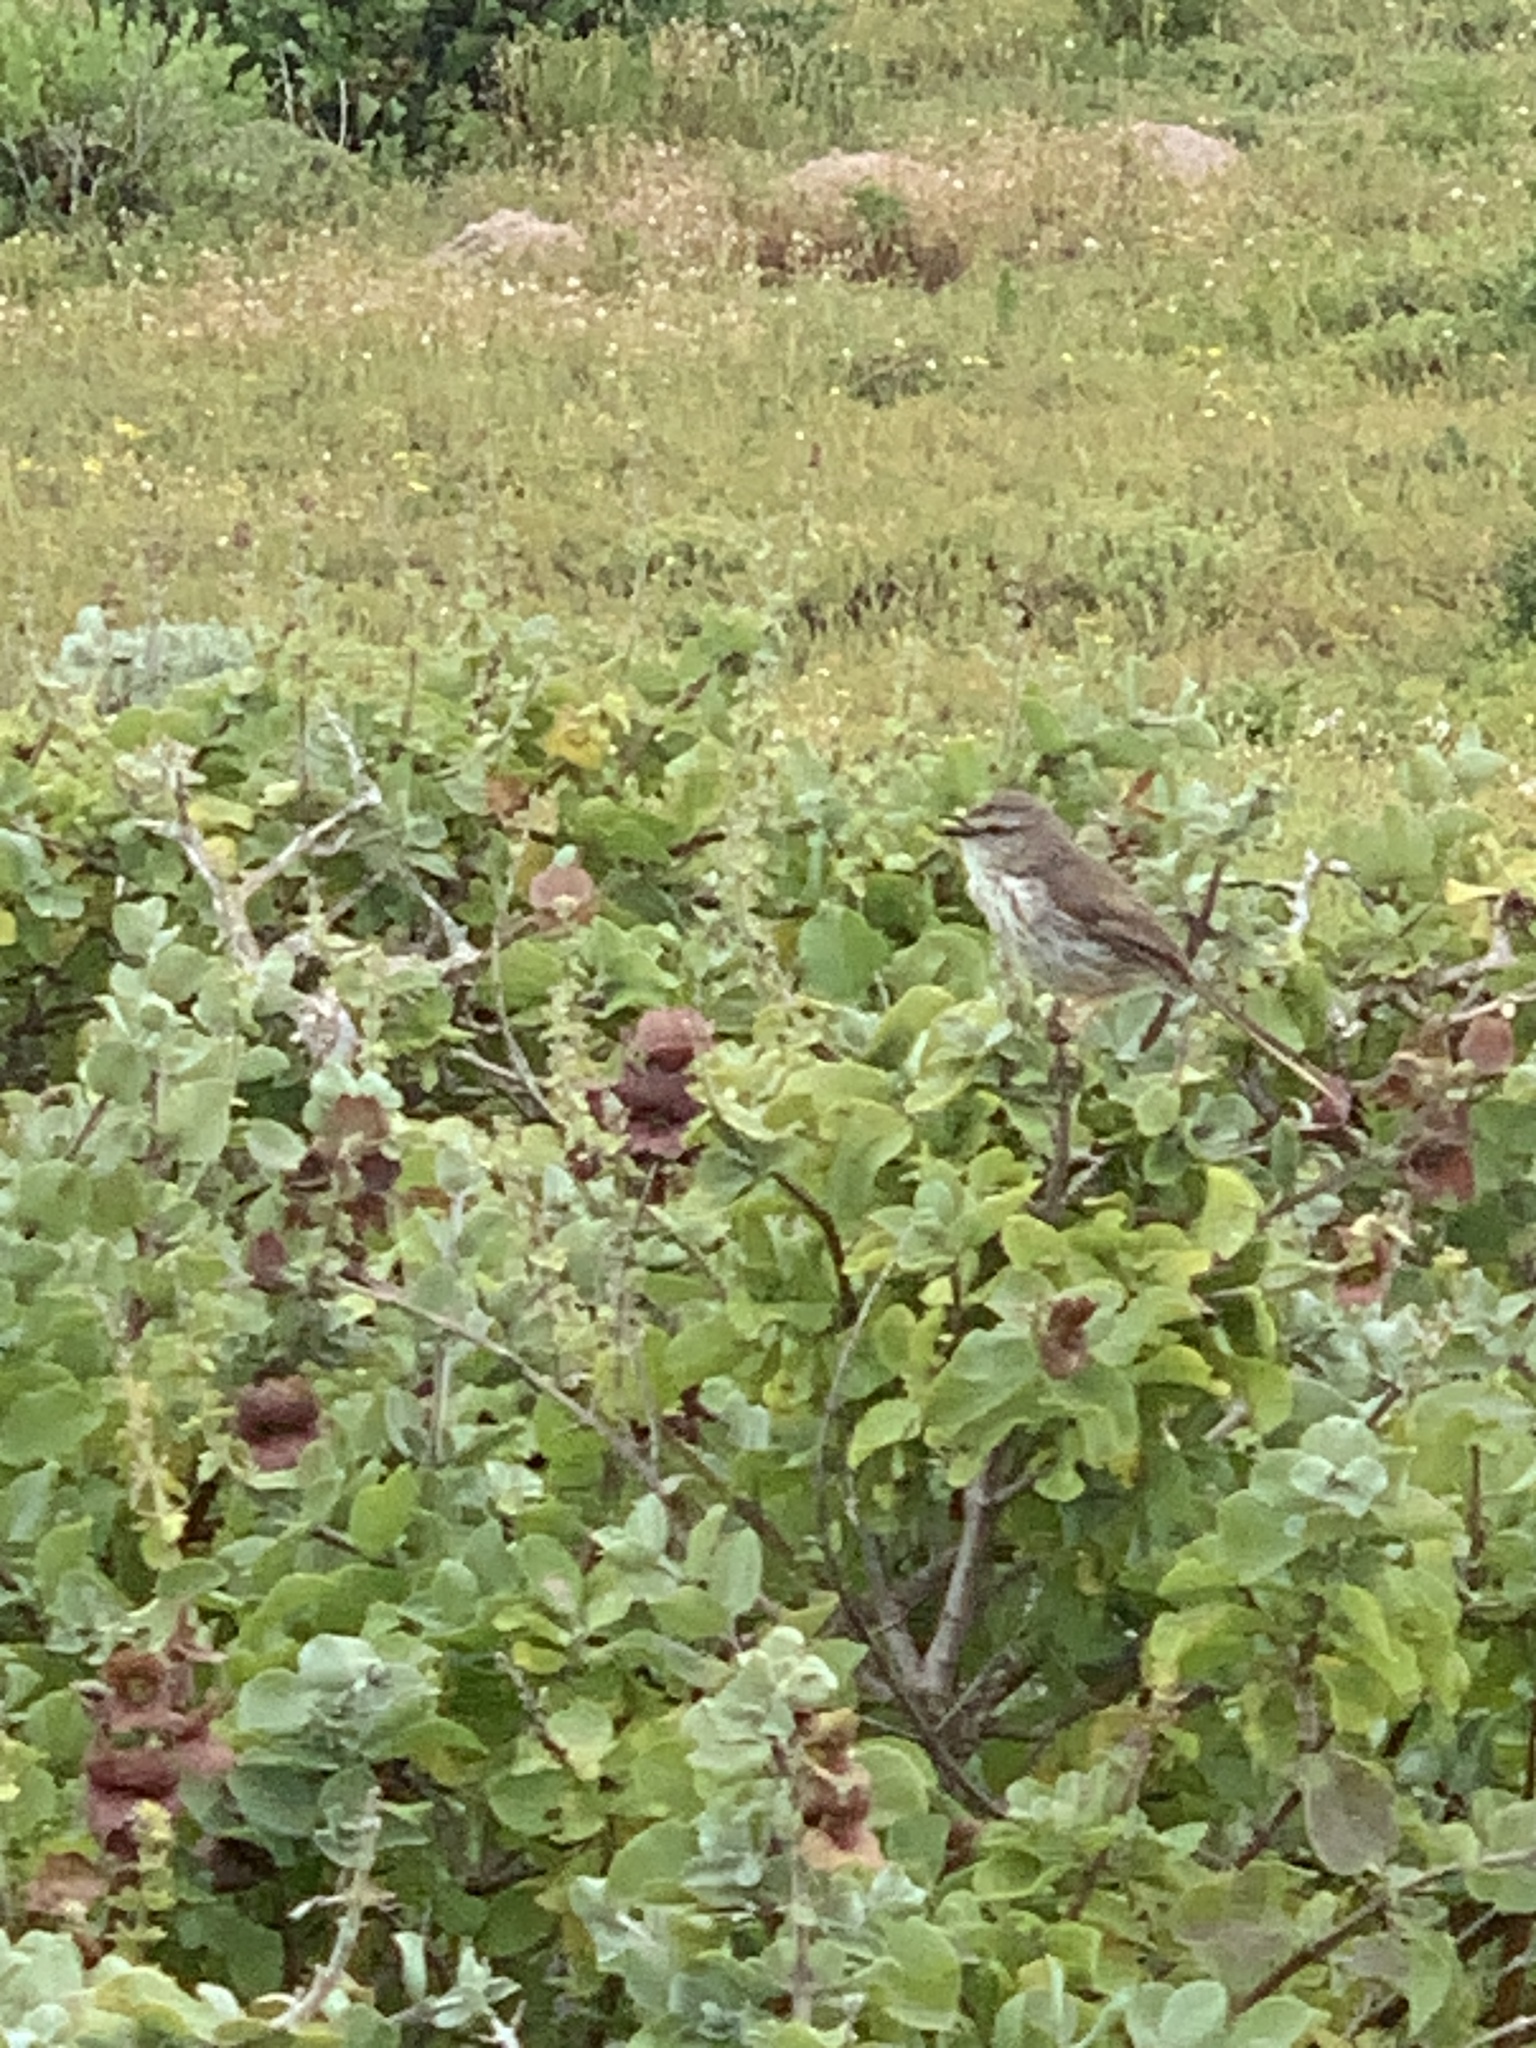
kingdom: Animalia
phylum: Chordata
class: Aves
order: Passeriformes
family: Cisticolidae
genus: Prinia
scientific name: Prinia maculosa
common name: Karoo prinia
